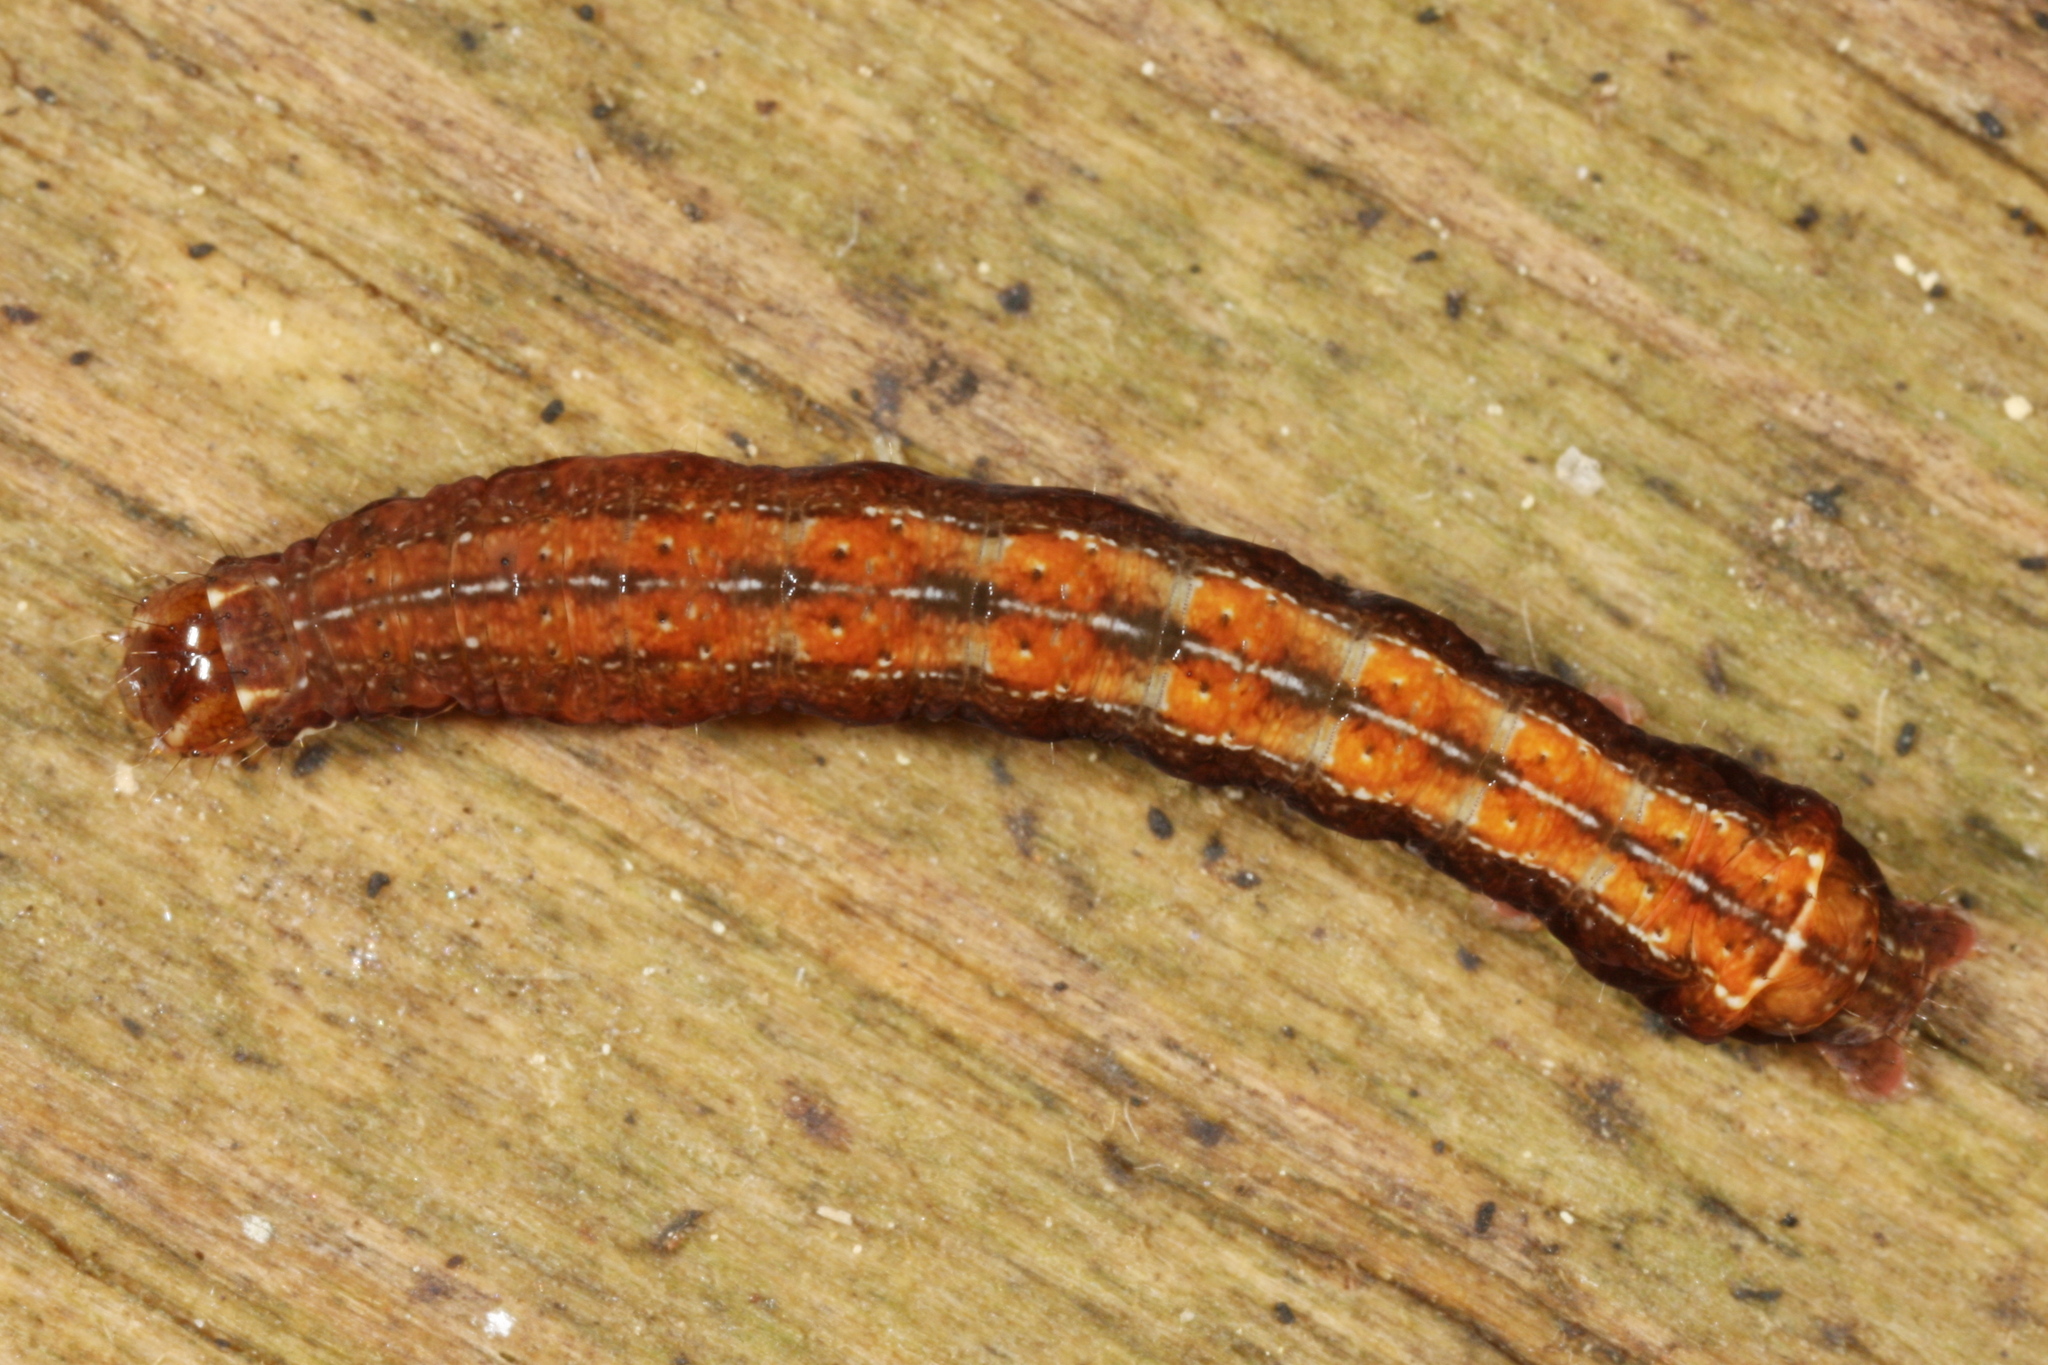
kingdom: Animalia
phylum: Arthropoda
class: Insecta
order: Lepidoptera
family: Noctuidae
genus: Diarsia
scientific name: Diarsia brunnea
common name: Purple clay
